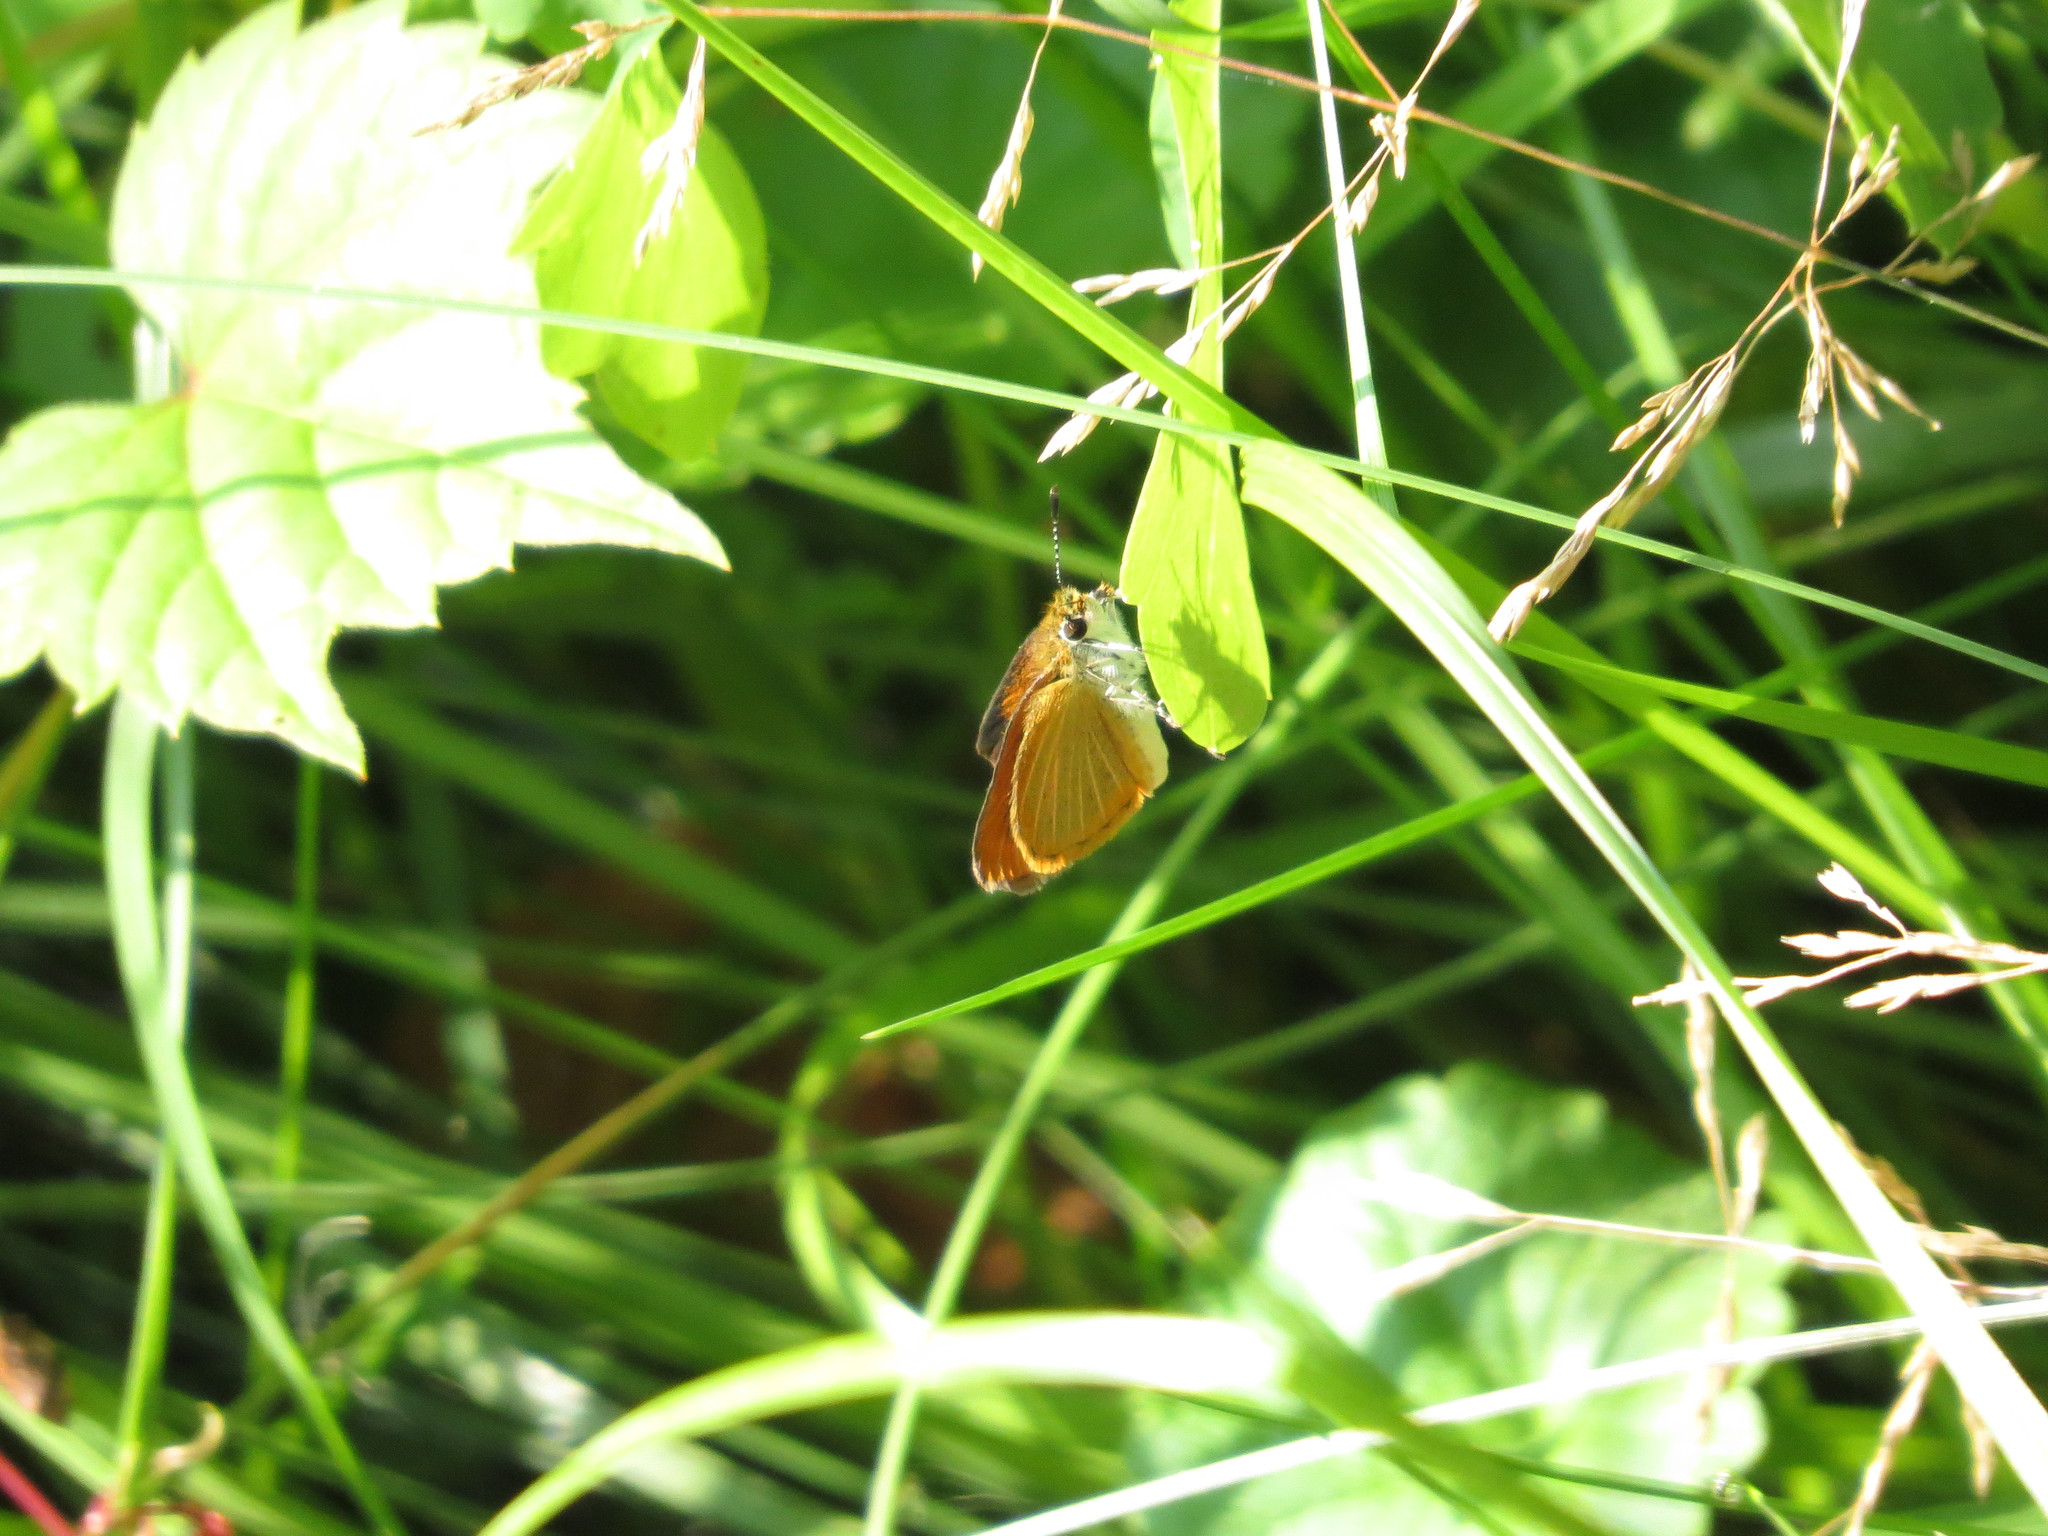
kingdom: Animalia
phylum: Arthropoda
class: Insecta
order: Lepidoptera
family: Hesperiidae
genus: Ancyloxypha
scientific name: Ancyloxypha numitor
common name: Least skipper
